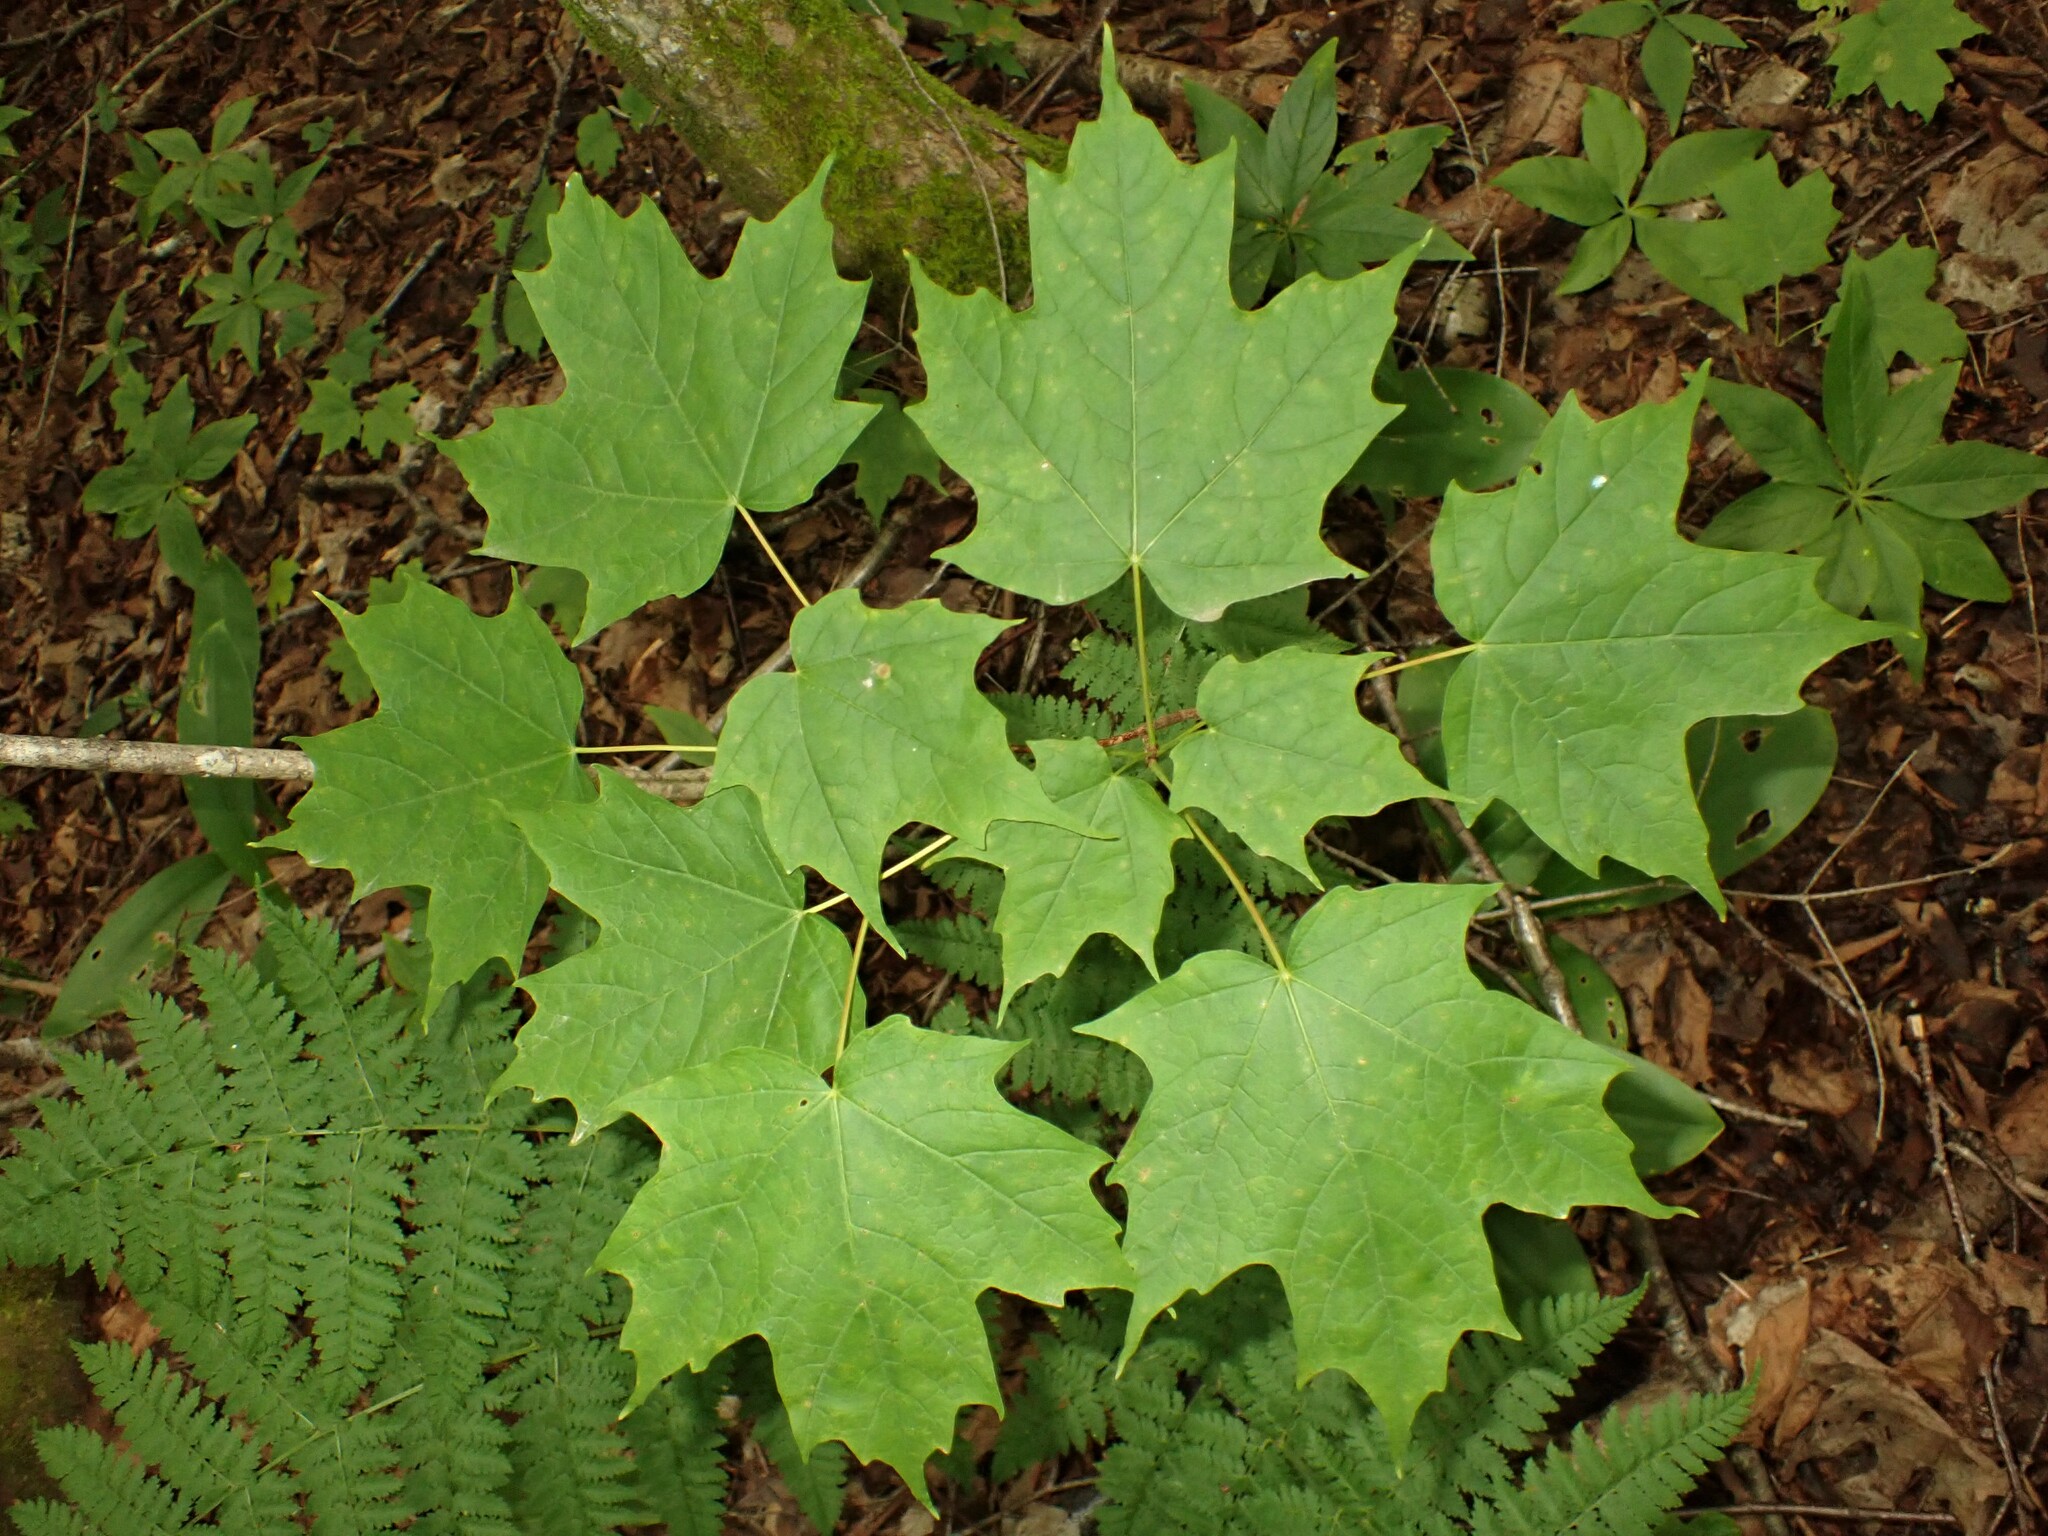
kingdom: Plantae
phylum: Tracheophyta
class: Magnoliopsida
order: Sapindales
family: Sapindaceae
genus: Acer
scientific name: Acer saccharum
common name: Sugar maple
